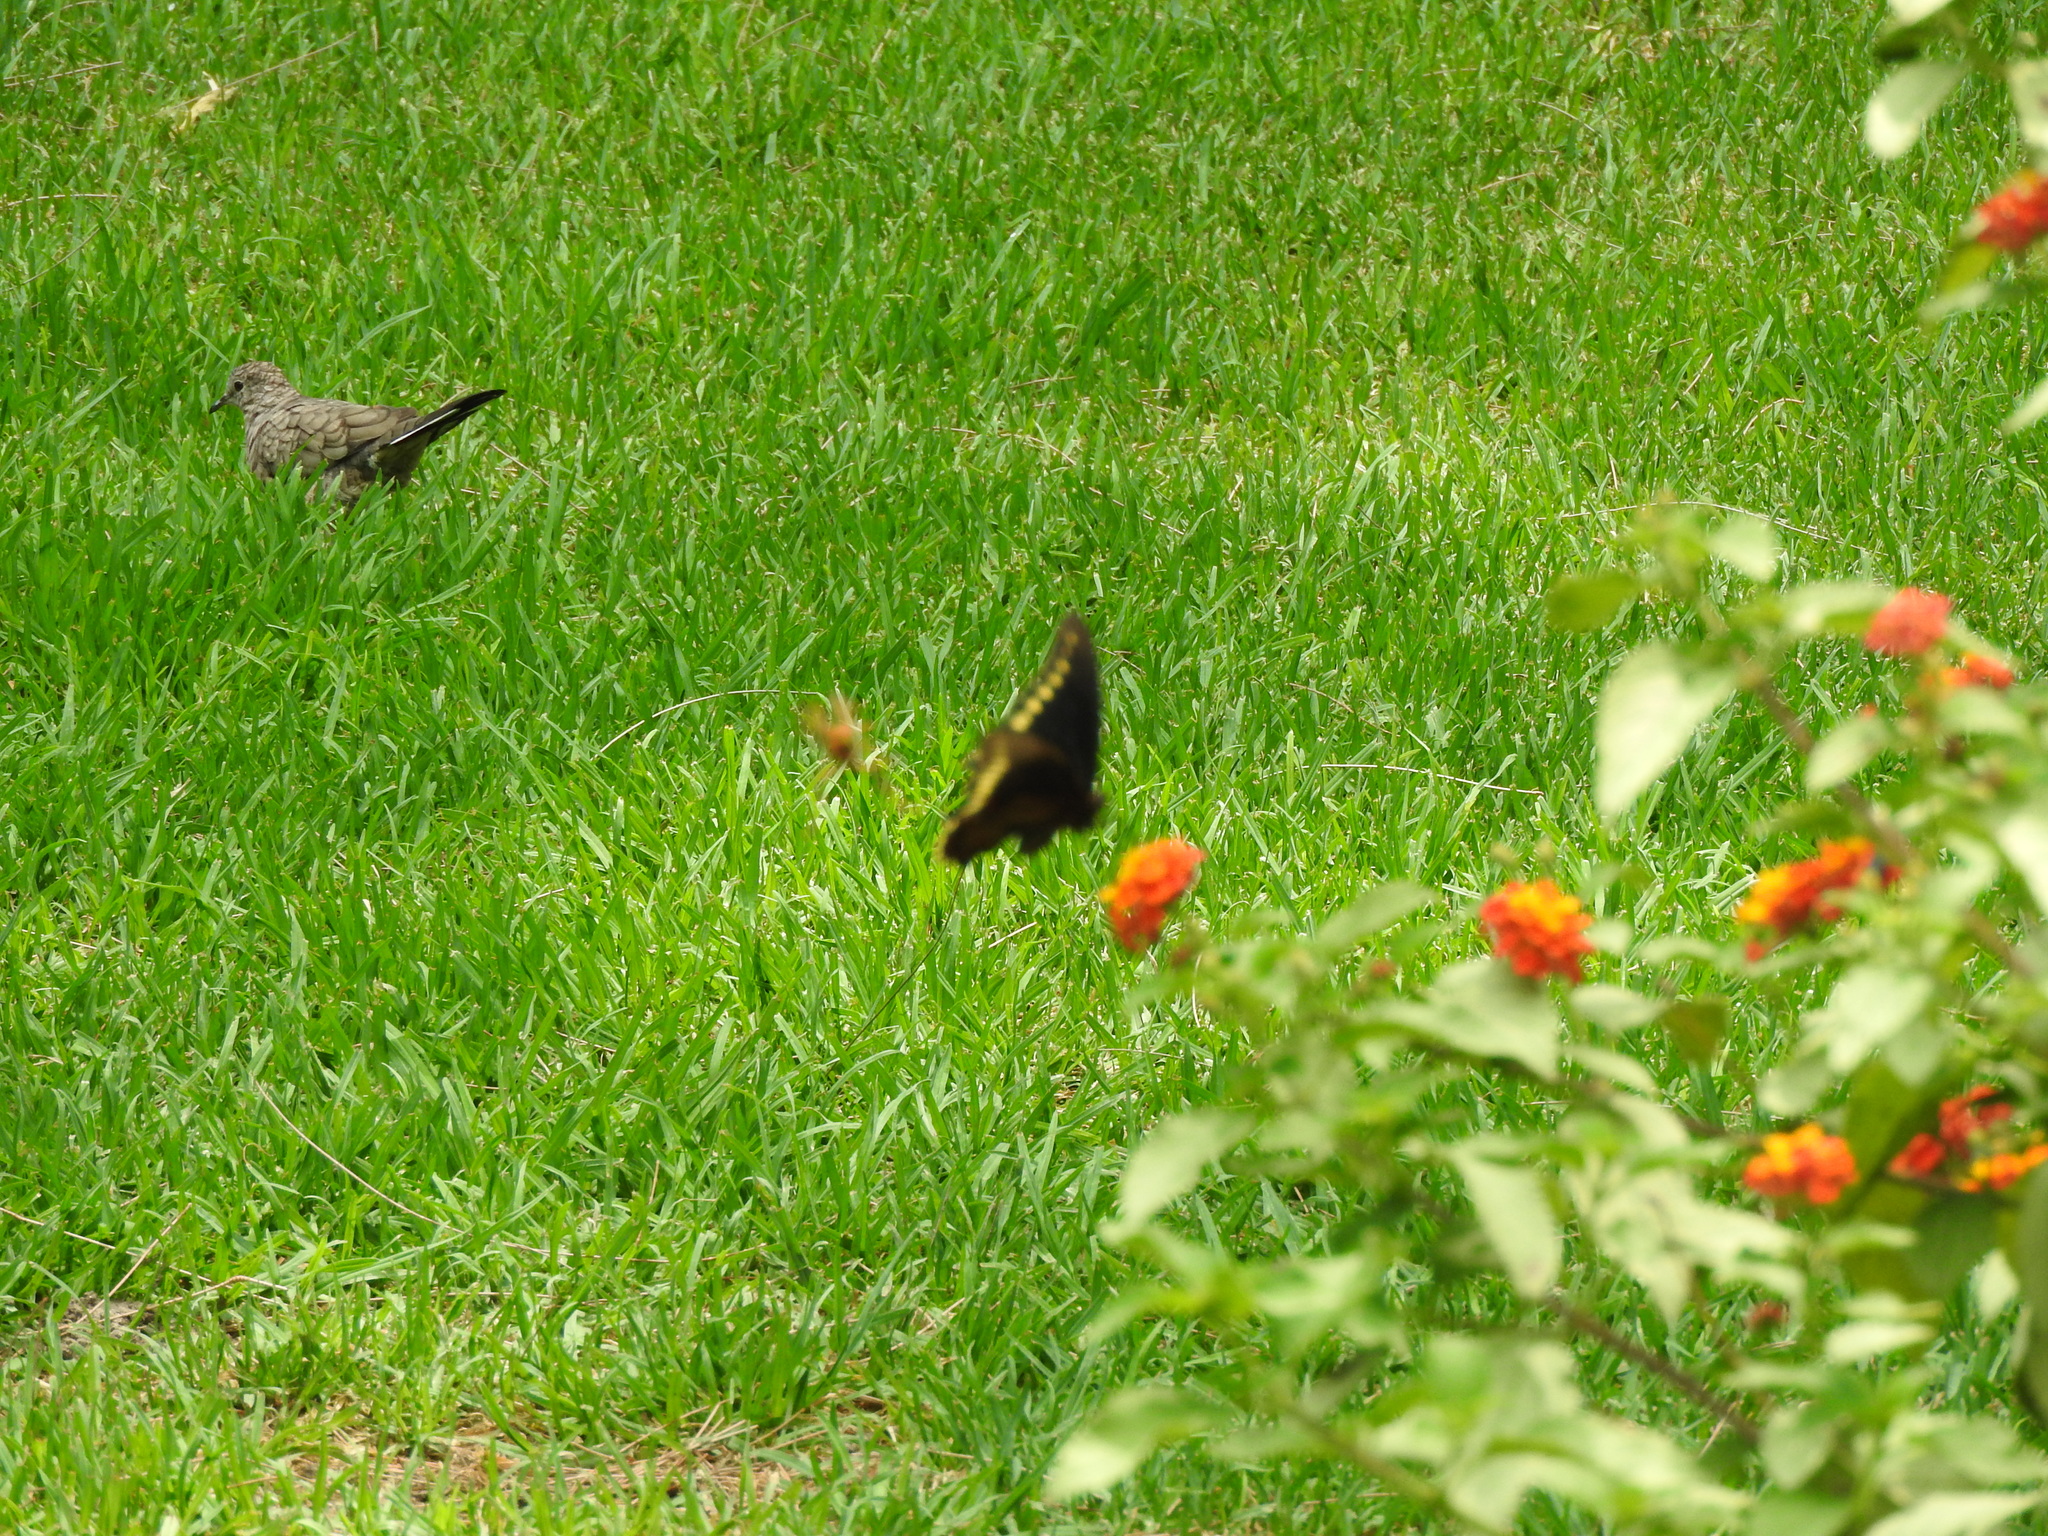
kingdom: Animalia
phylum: Arthropoda
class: Insecta
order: Lepidoptera
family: Papilionidae
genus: Battus
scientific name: Battus polydamas
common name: Polydamas swallowtail
